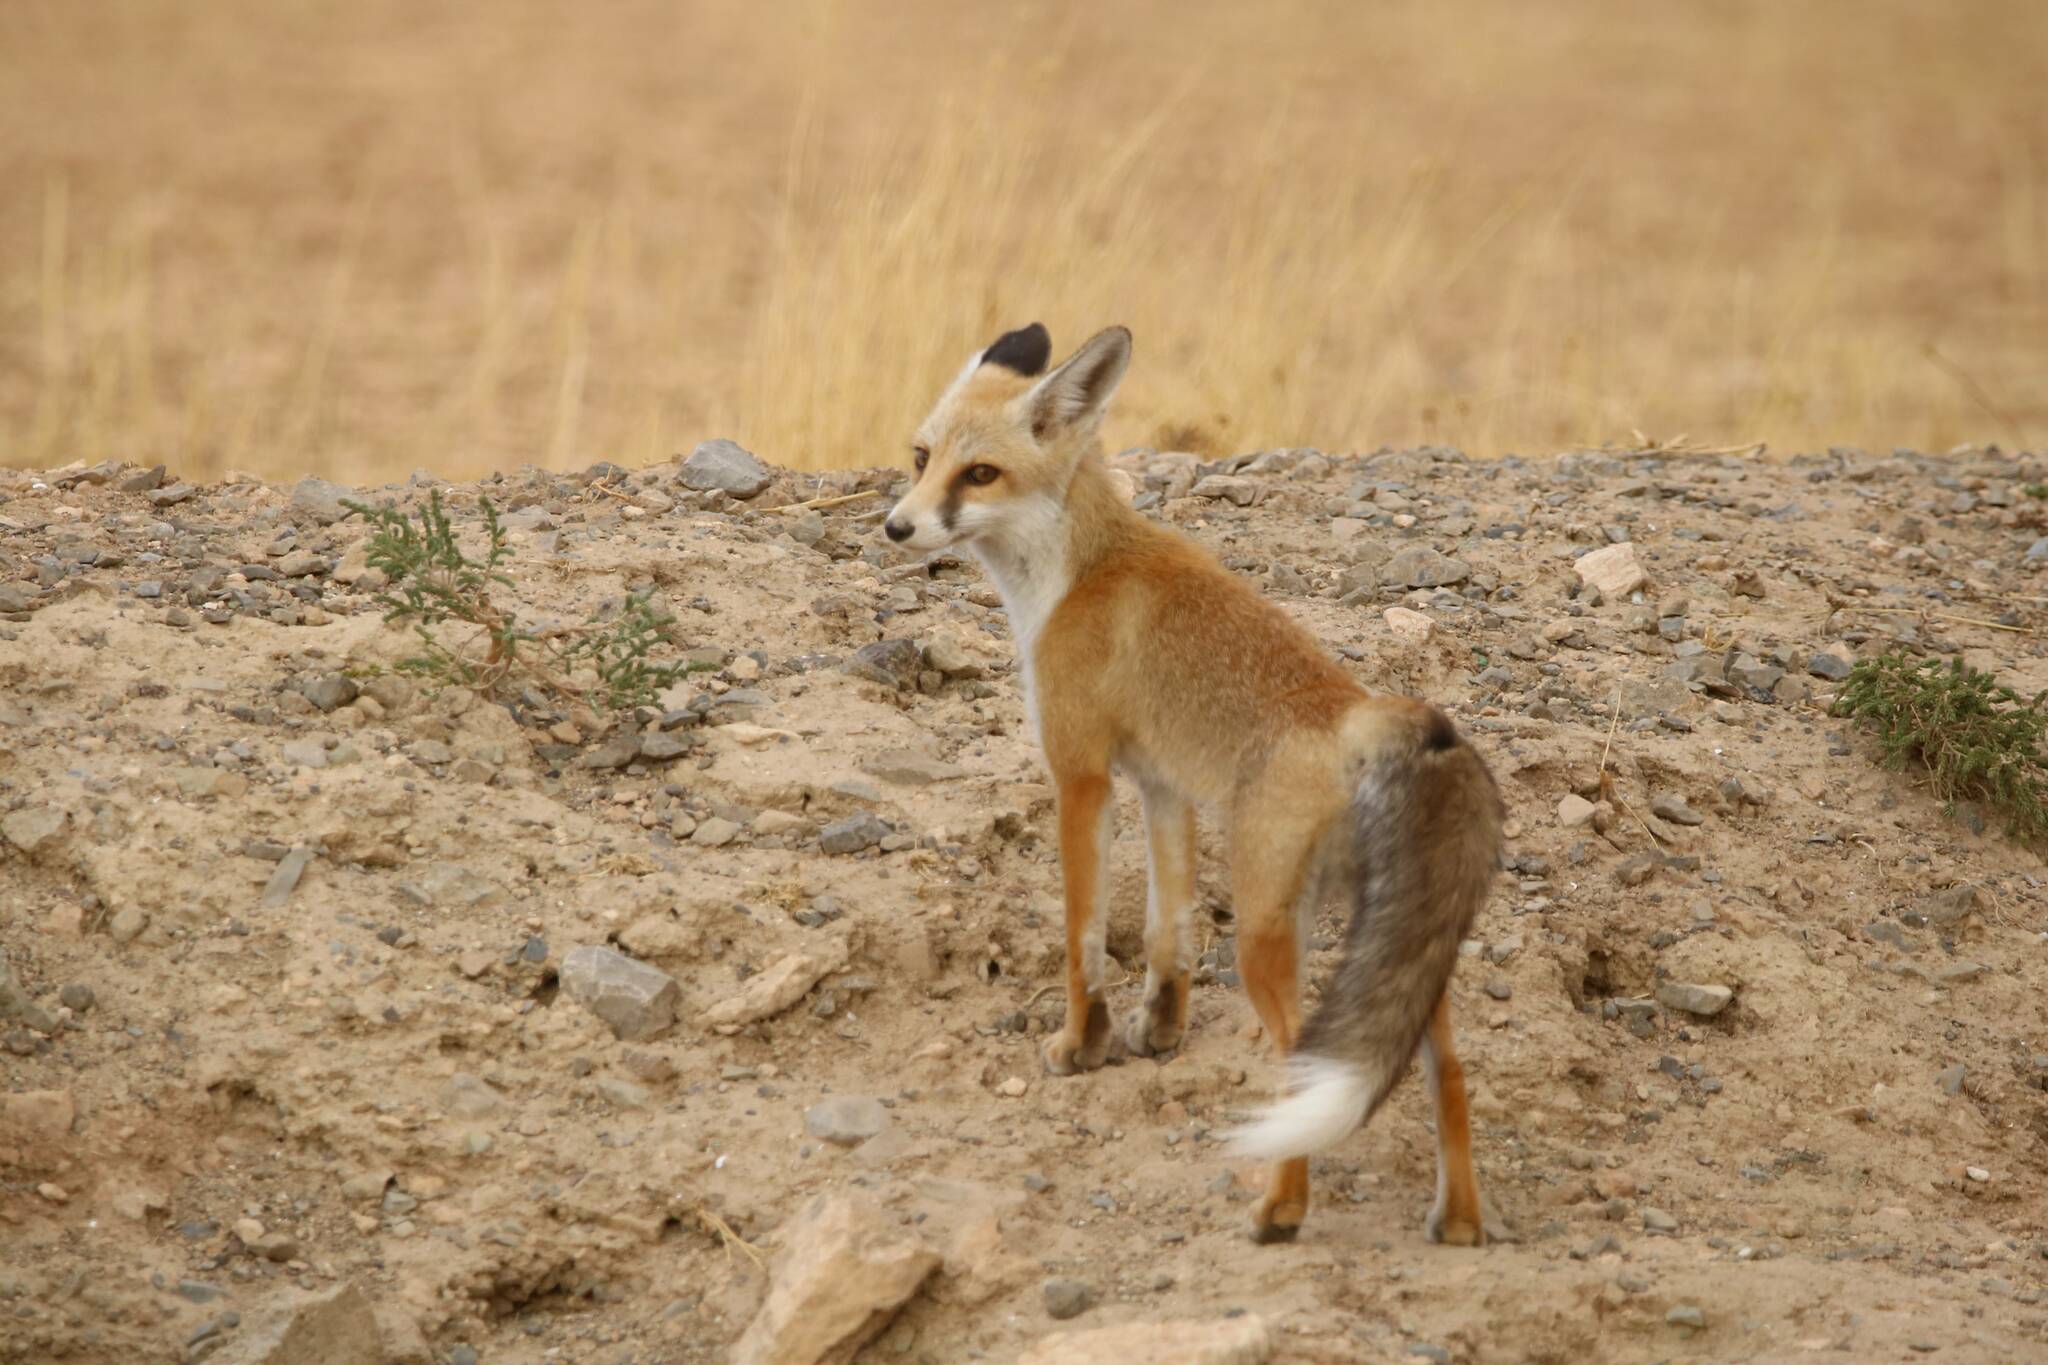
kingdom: Animalia
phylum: Chordata
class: Mammalia
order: Carnivora
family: Canidae
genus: Vulpes
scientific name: Vulpes vulpes
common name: Red fox
